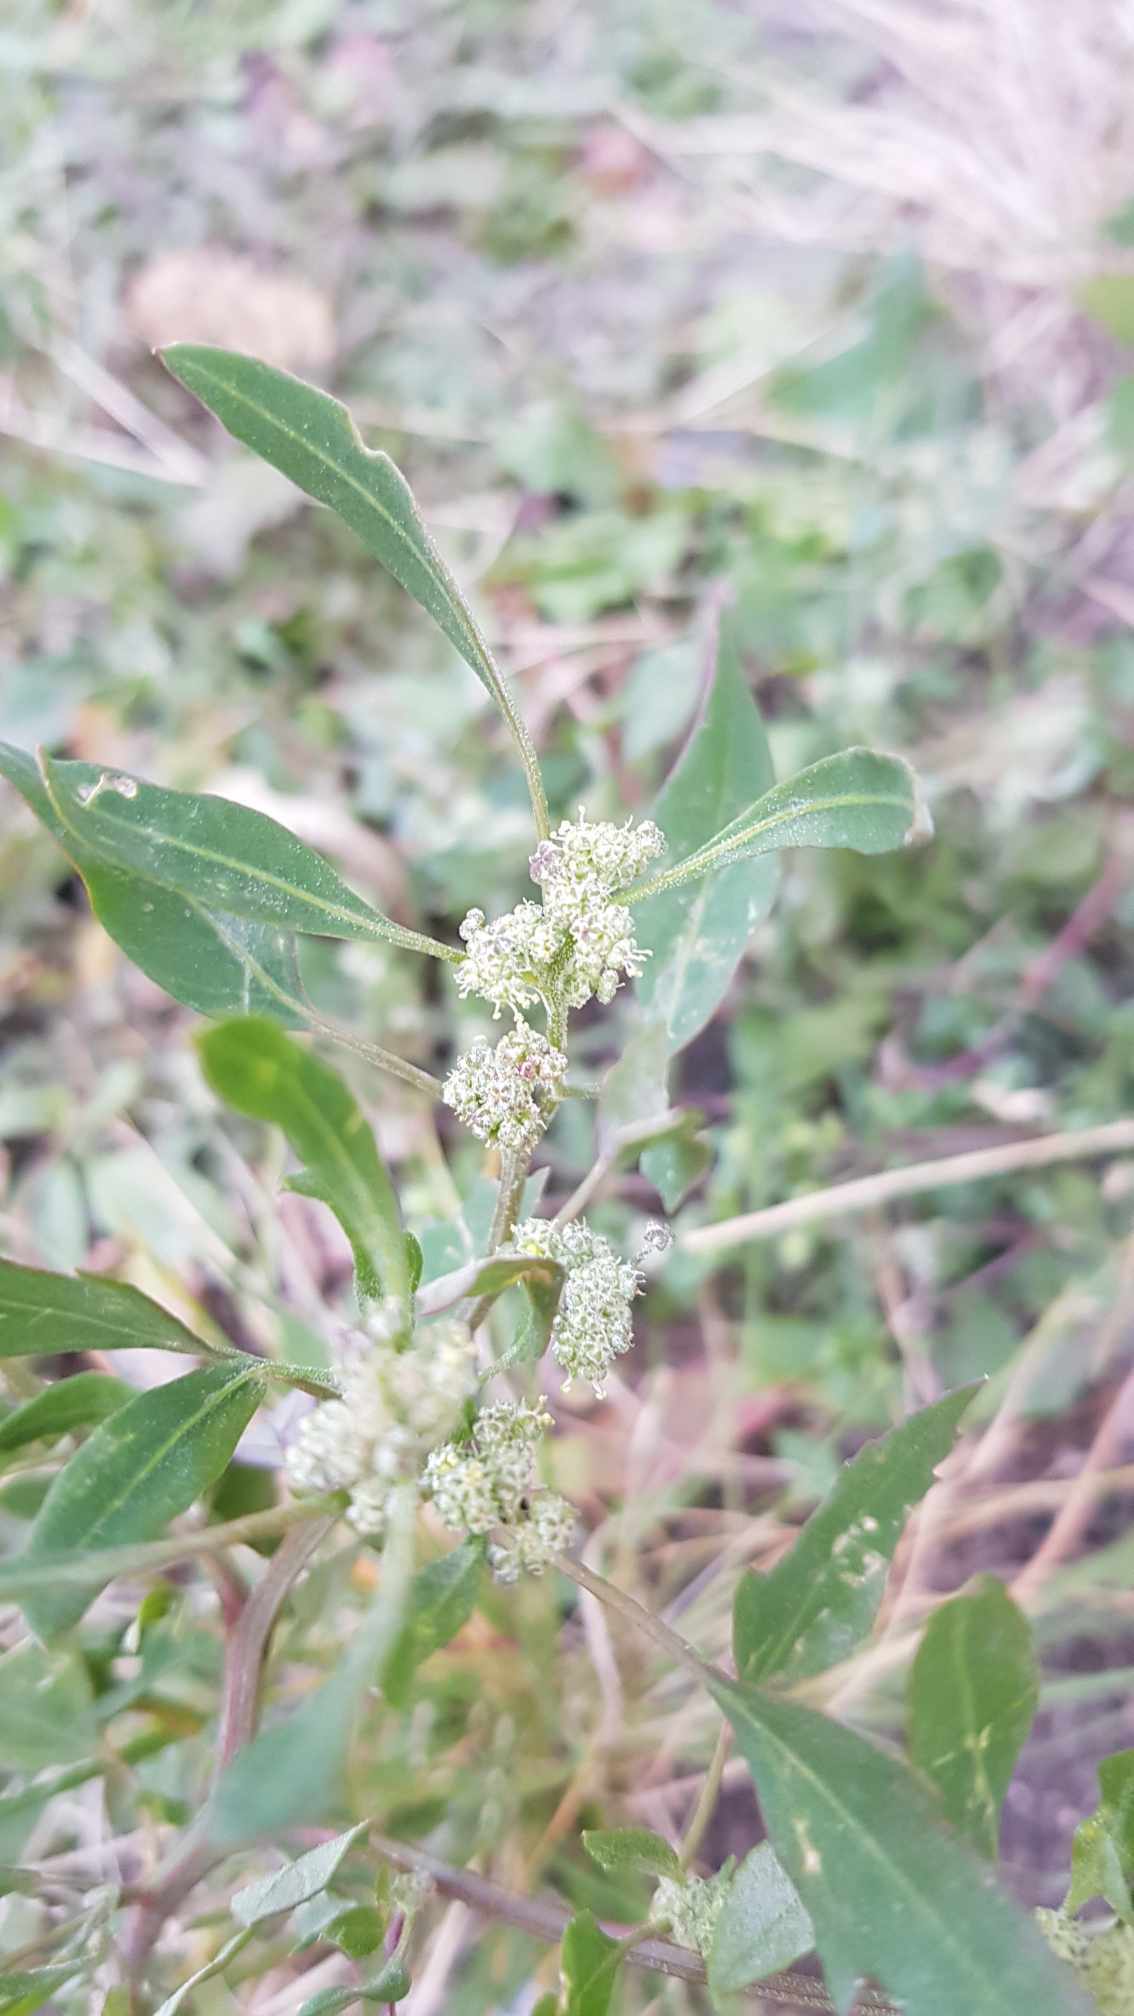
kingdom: Plantae
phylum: Tracheophyta
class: Magnoliopsida
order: Caryophyllales
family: Amaranthaceae
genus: Chenopodium
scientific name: Chenopodium album
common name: Fat-hen
